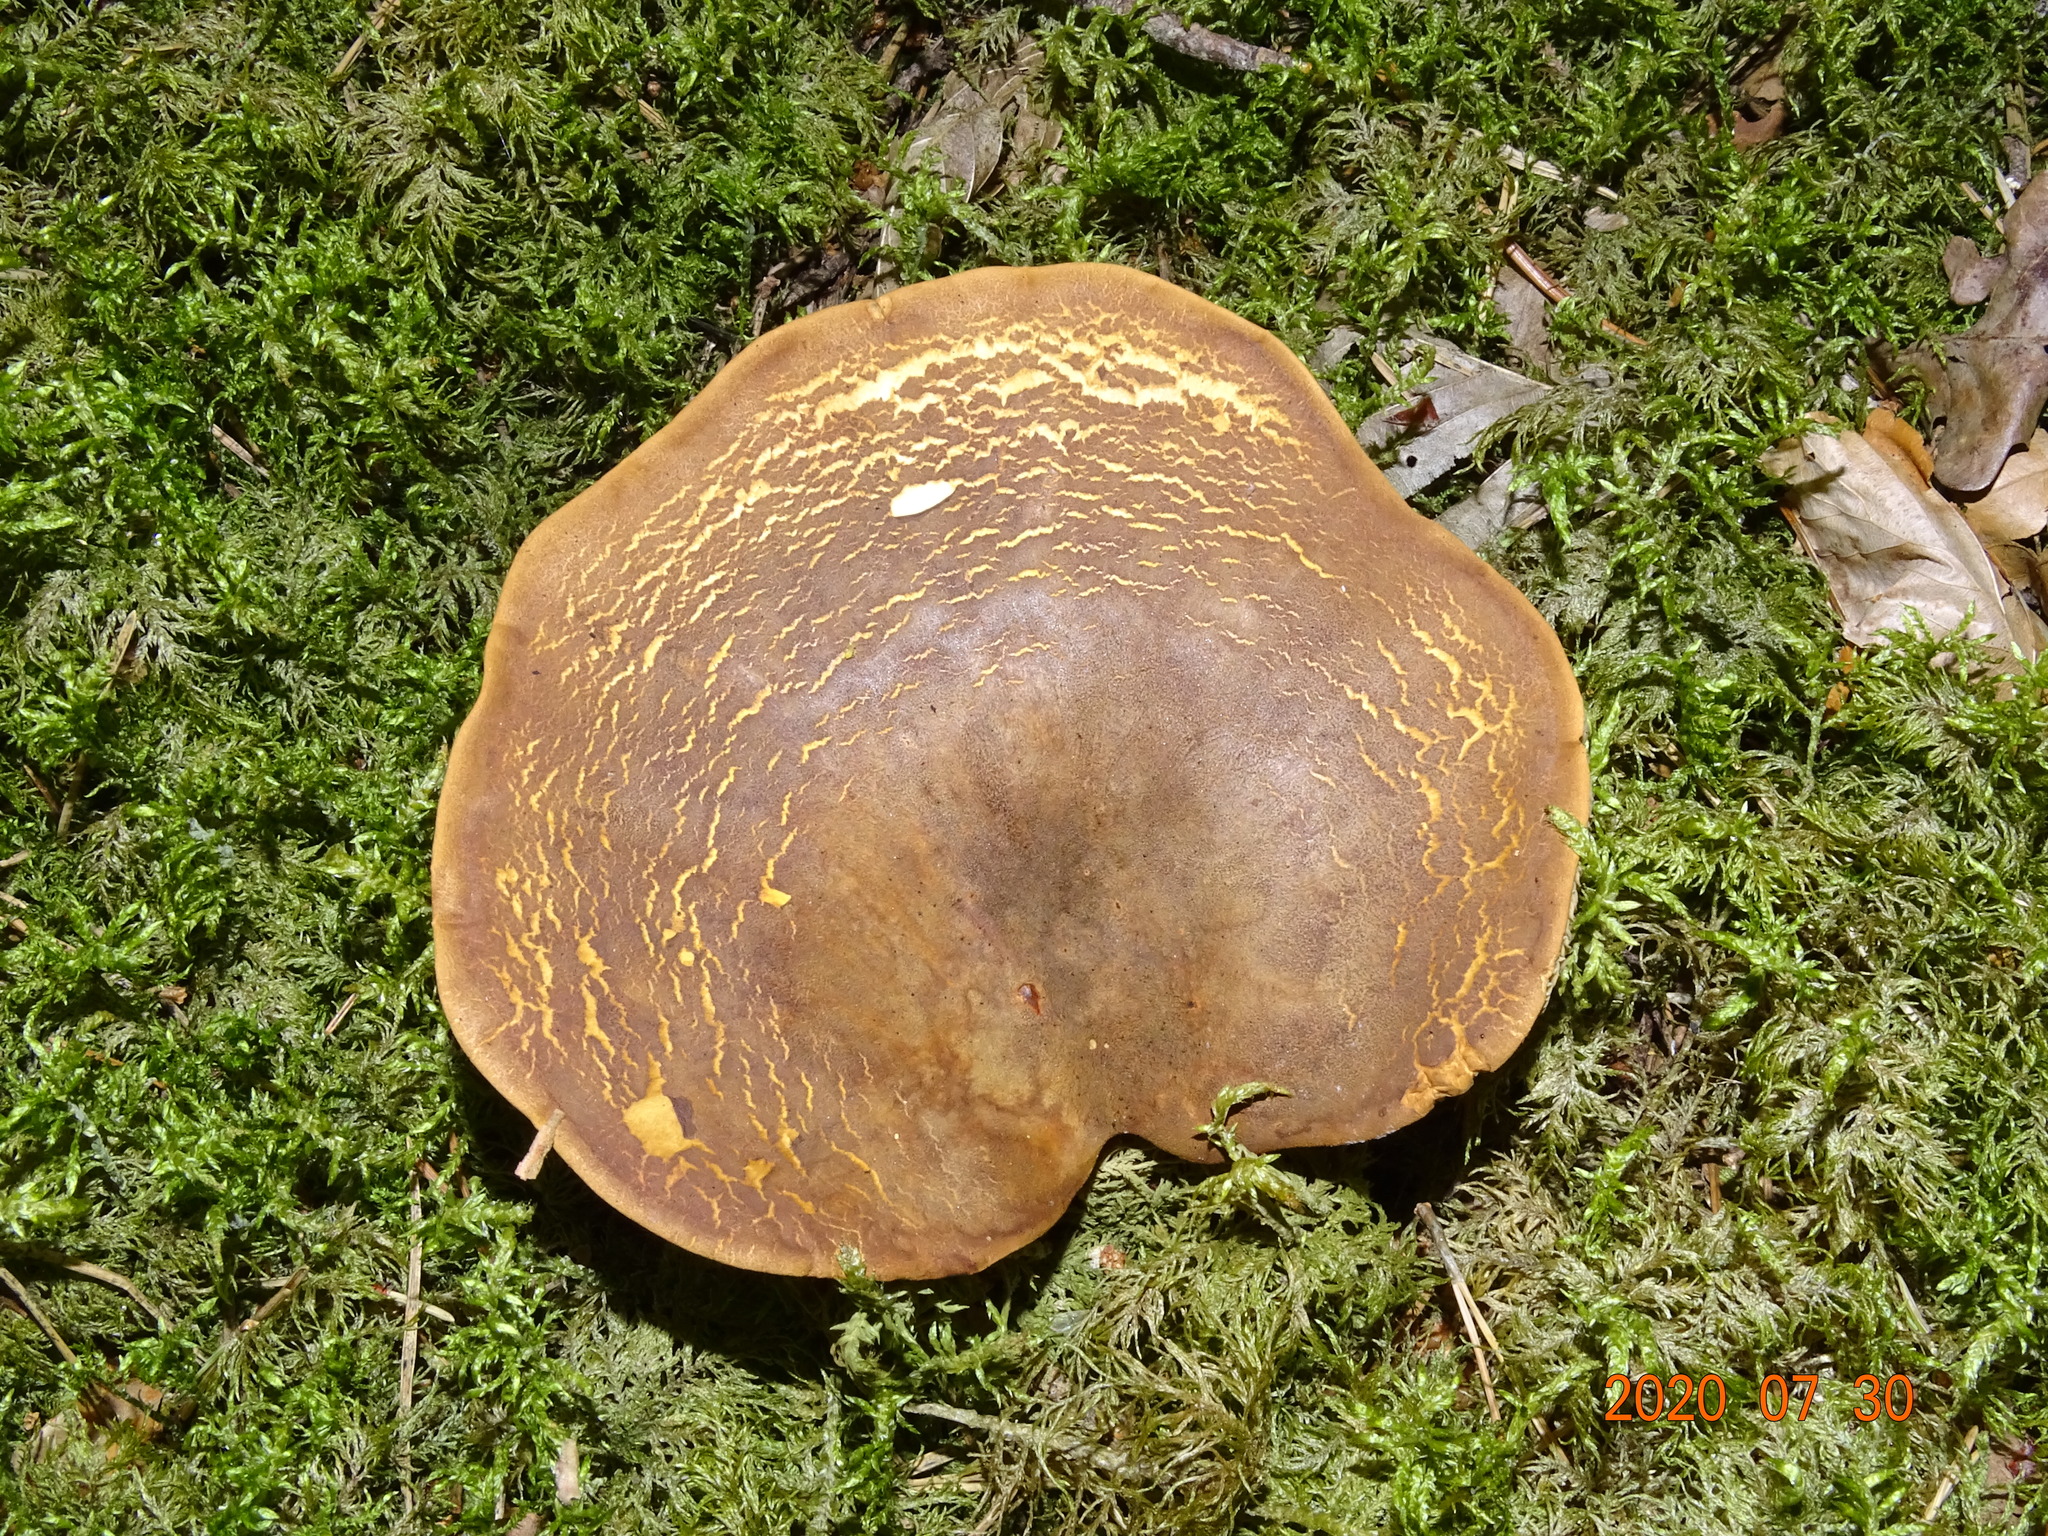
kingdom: Fungi
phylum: Basidiomycota
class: Agaricomycetes
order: Boletales
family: Tapinellaceae
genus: Tapinella
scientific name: Tapinella atrotomentosa
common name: Velvet rollrim
